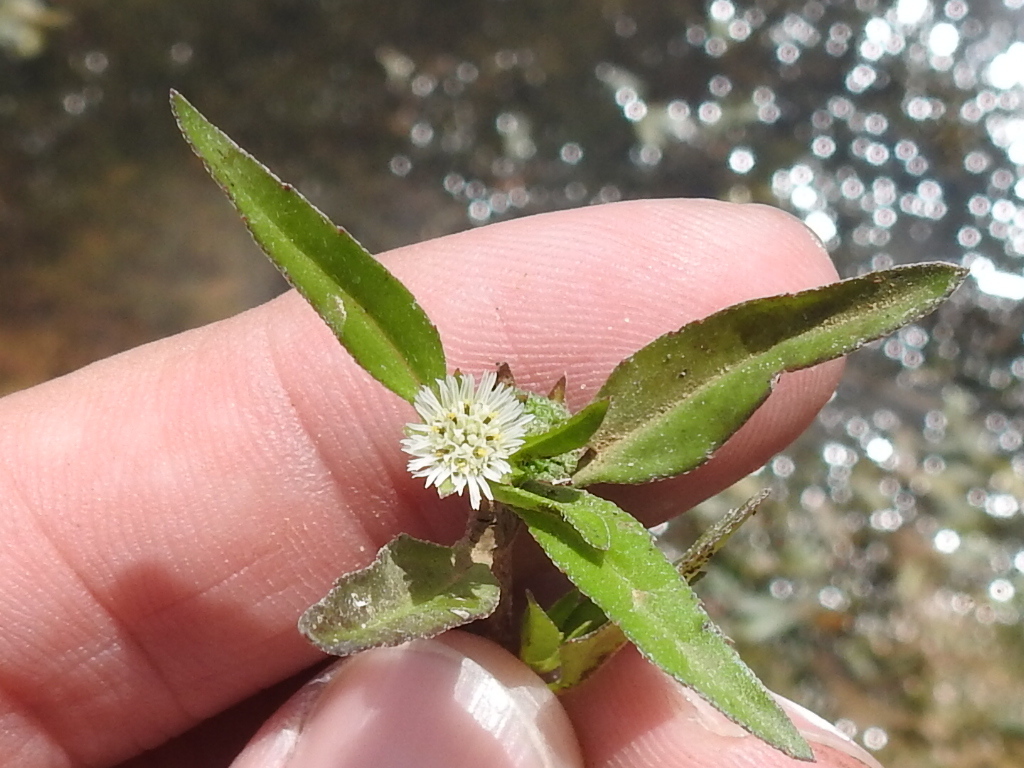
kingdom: Plantae
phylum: Tracheophyta
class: Magnoliopsida
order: Asterales
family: Asteraceae
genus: Eclipta
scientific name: Eclipta prostrata
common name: False daisy
